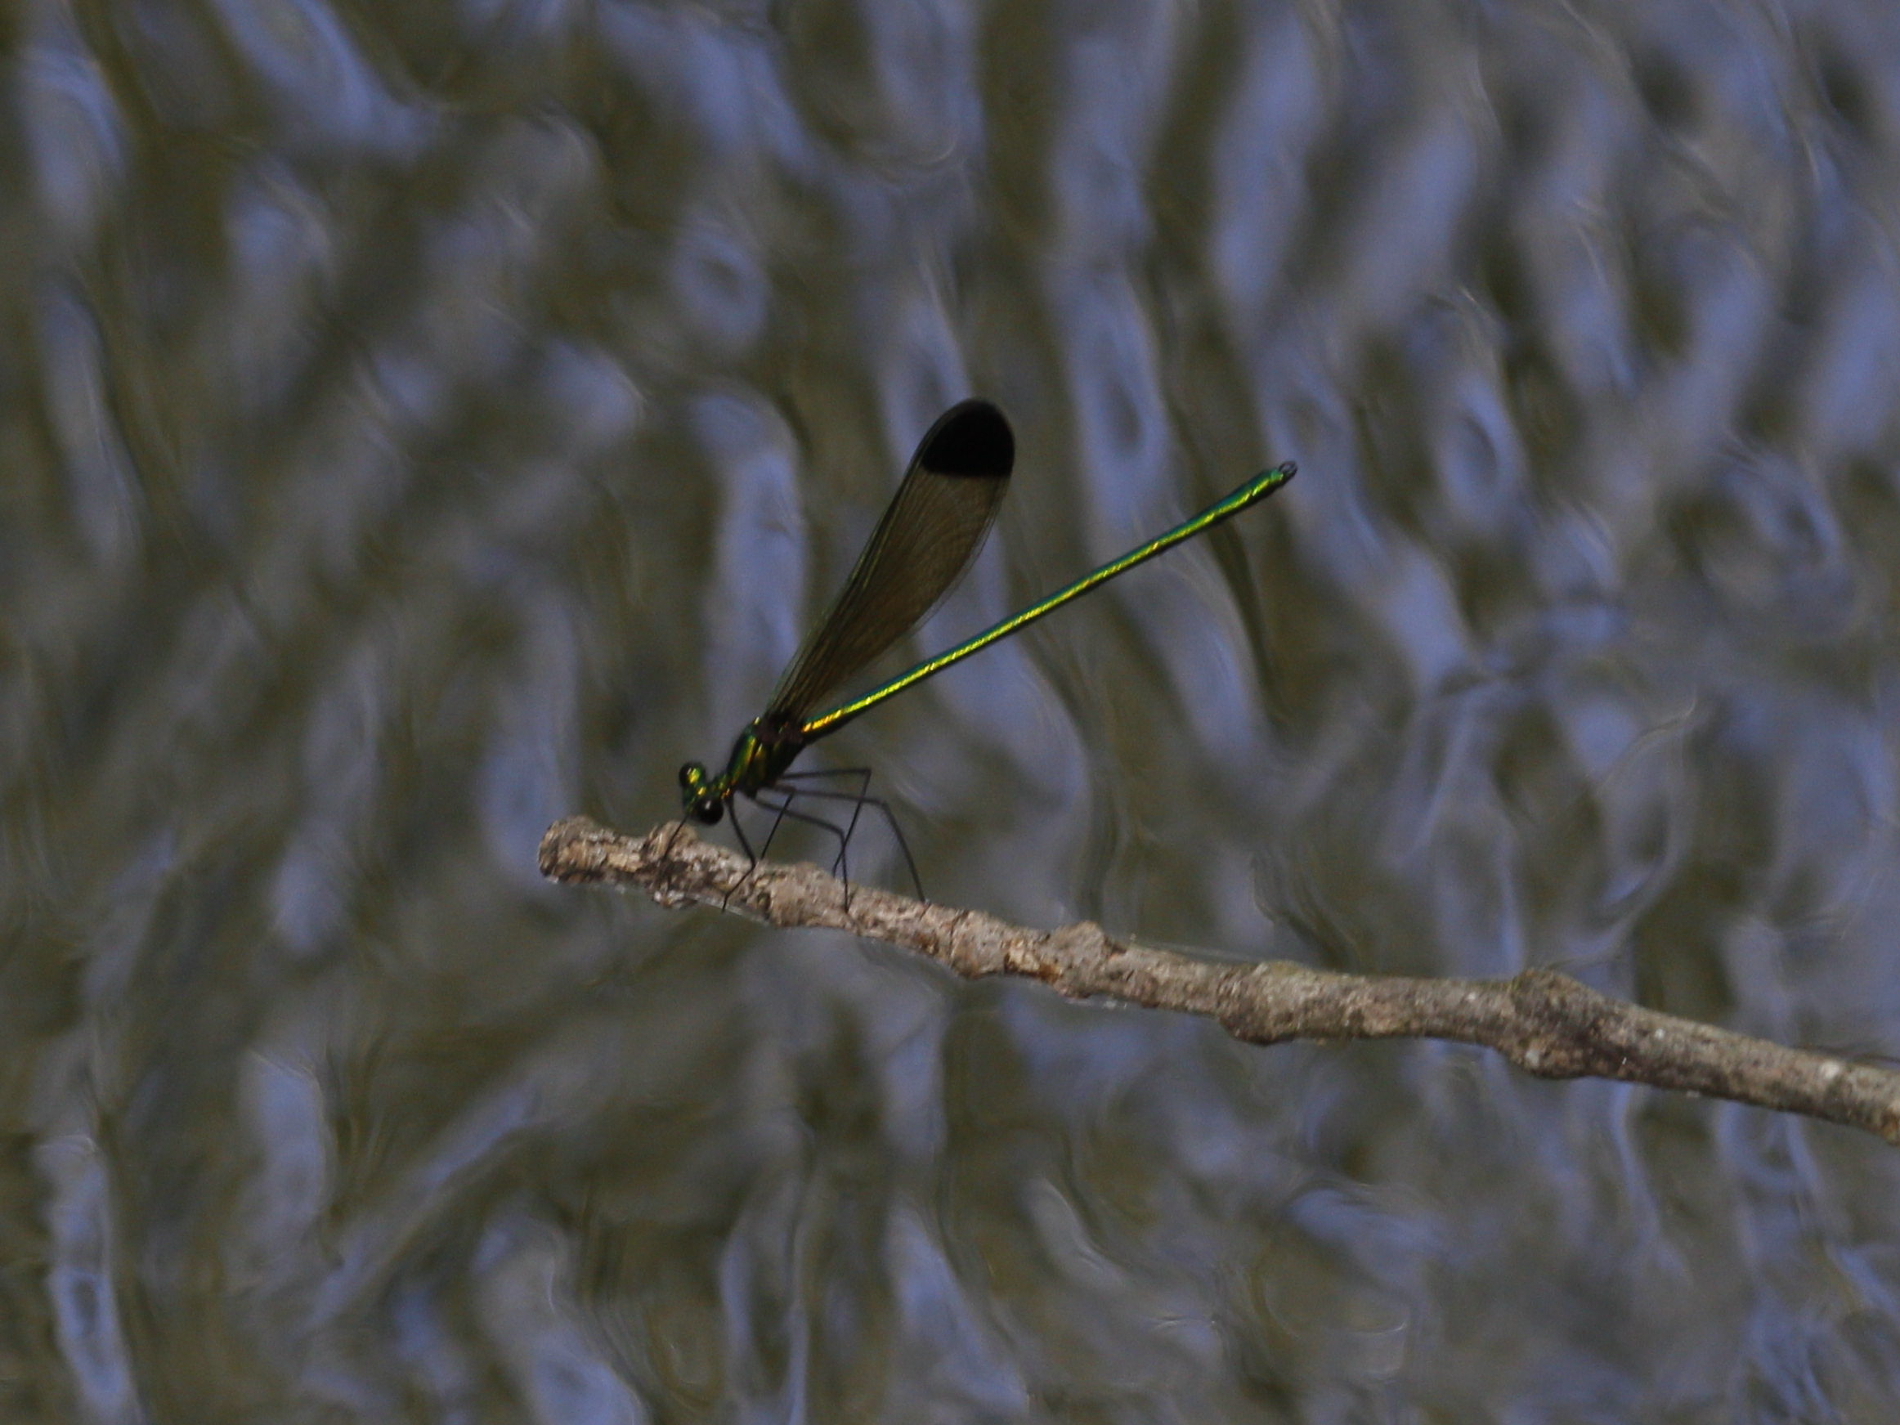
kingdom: Animalia
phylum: Arthropoda
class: Insecta
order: Odonata
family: Calopterygidae
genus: Calopteryx
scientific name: Calopteryx dimidiata
